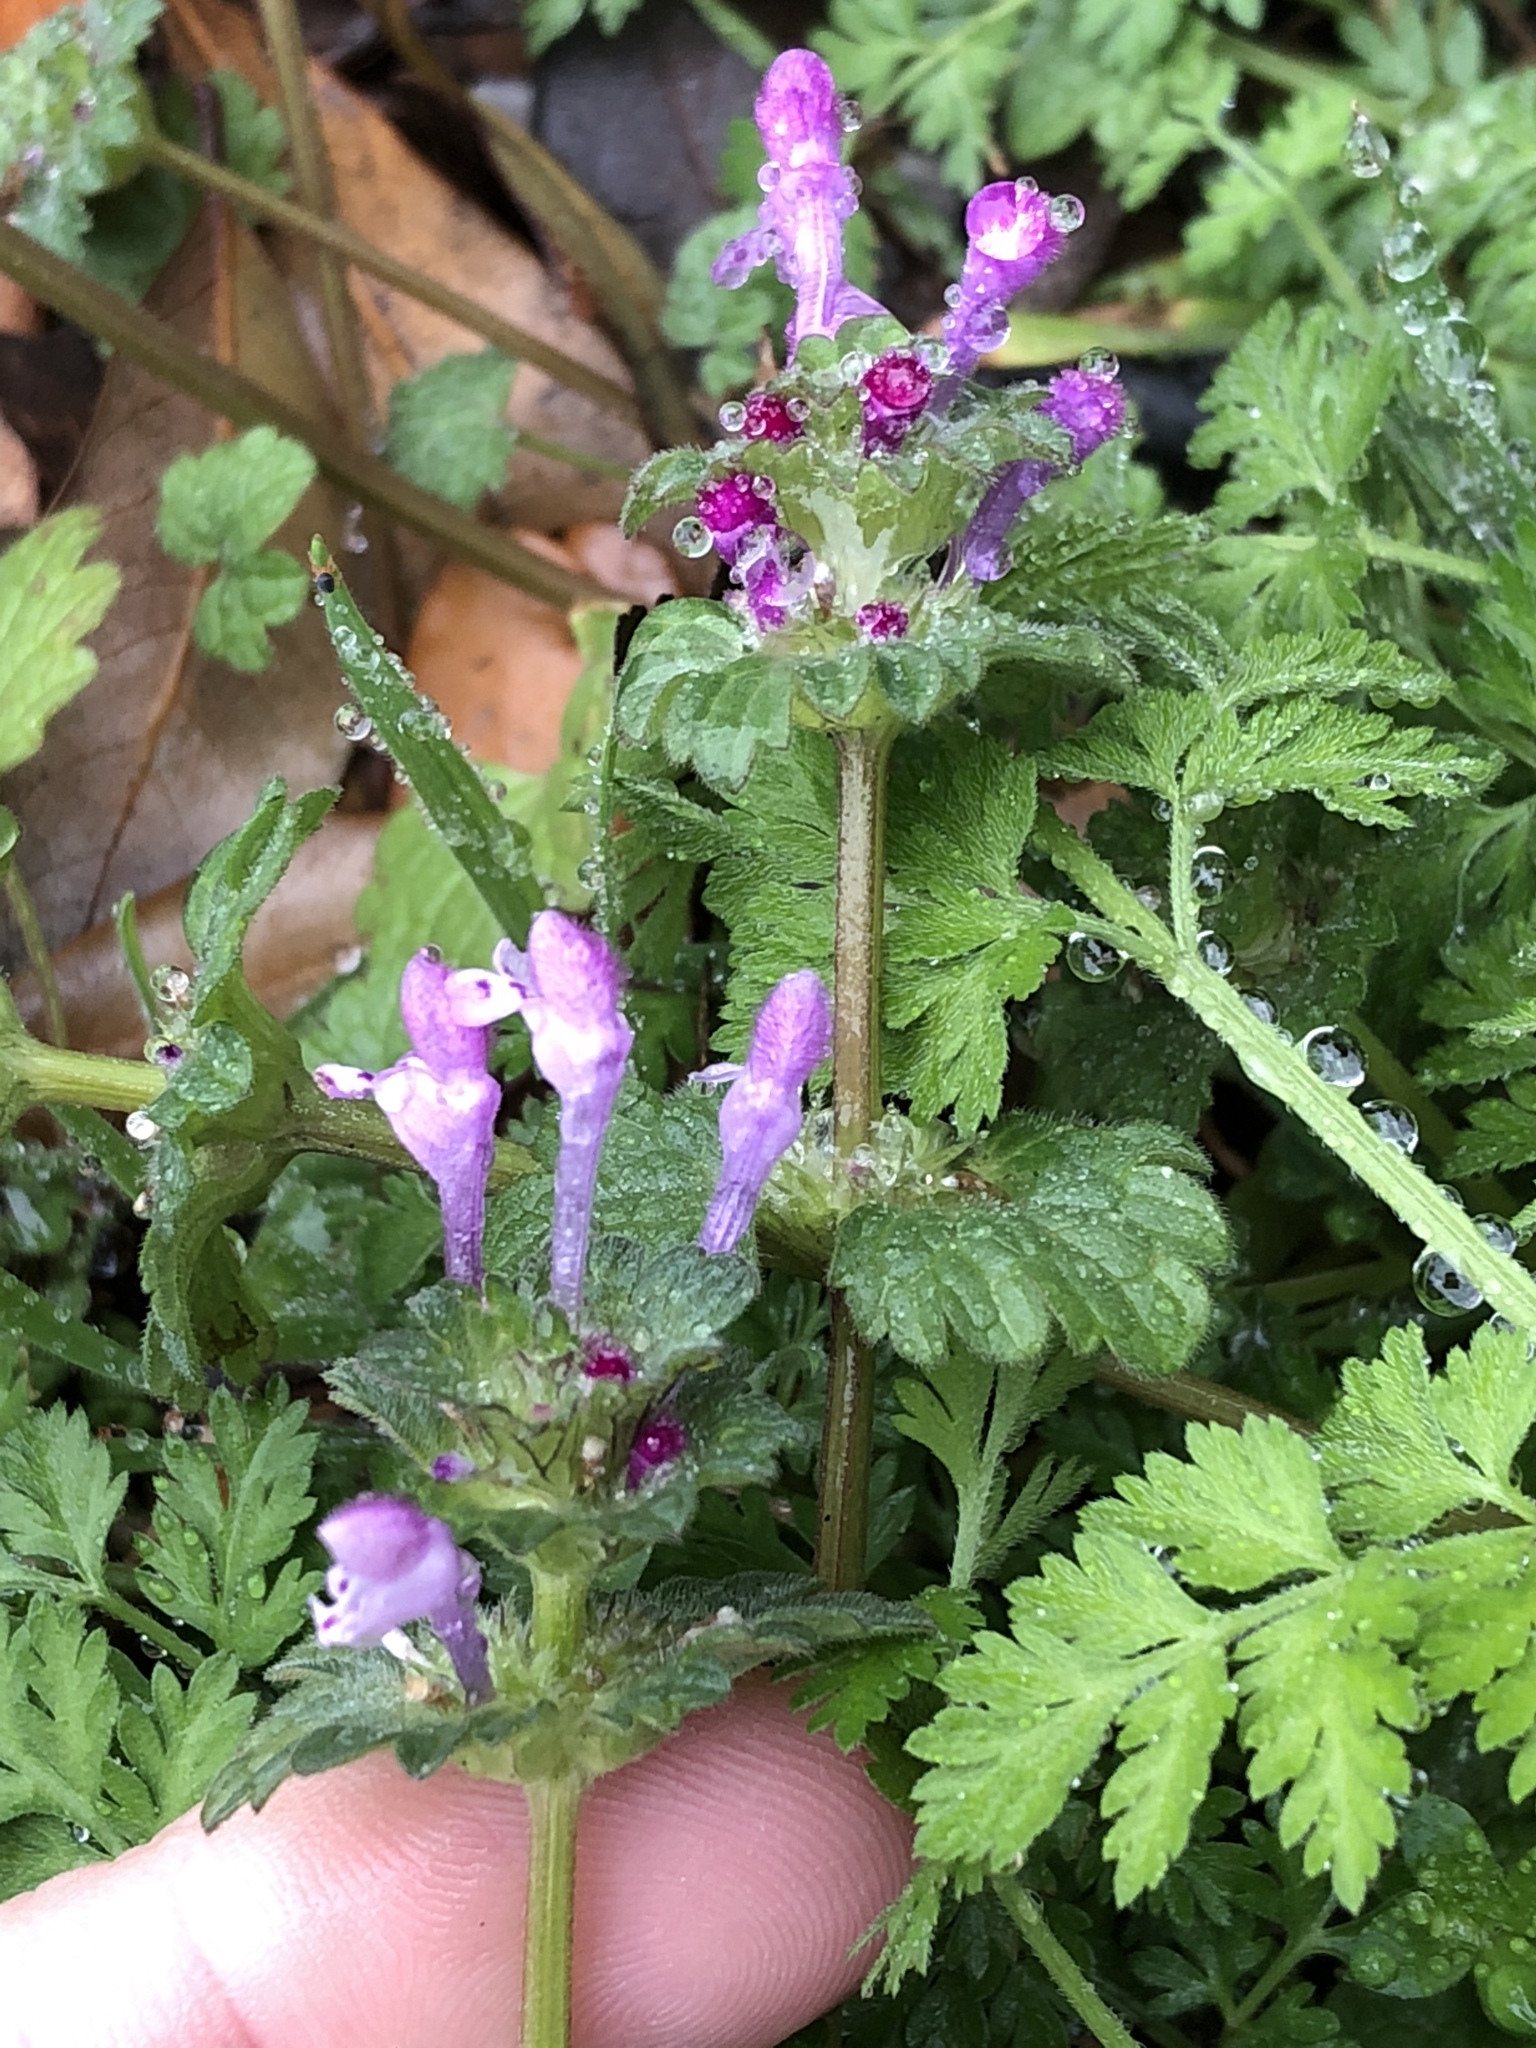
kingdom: Plantae
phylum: Tracheophyta
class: Magnoliopsida
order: Lamiales
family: Lamiaceae
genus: Lamium
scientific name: Lamium amplexicaule
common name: Henbit dead-nettle
